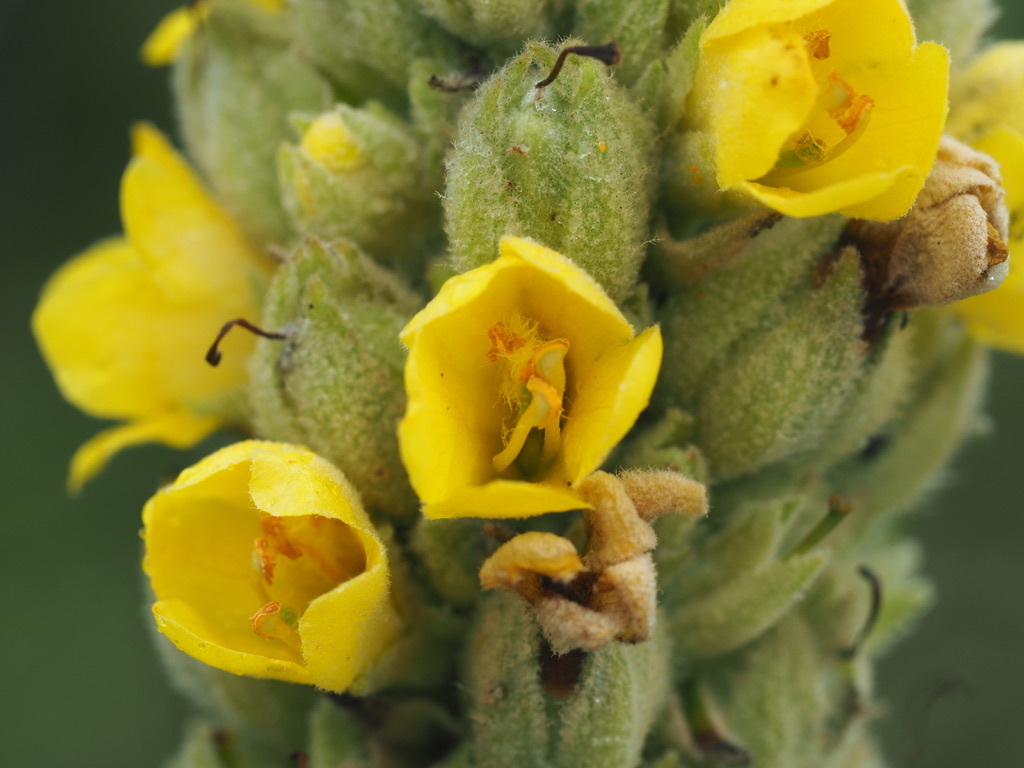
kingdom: Plantae
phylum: Tracheophyta
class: Magnoliopsida
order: Lamiales
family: Scrophulariaceae
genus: Verbascum
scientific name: Verbascum thapsus
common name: Common mullein
